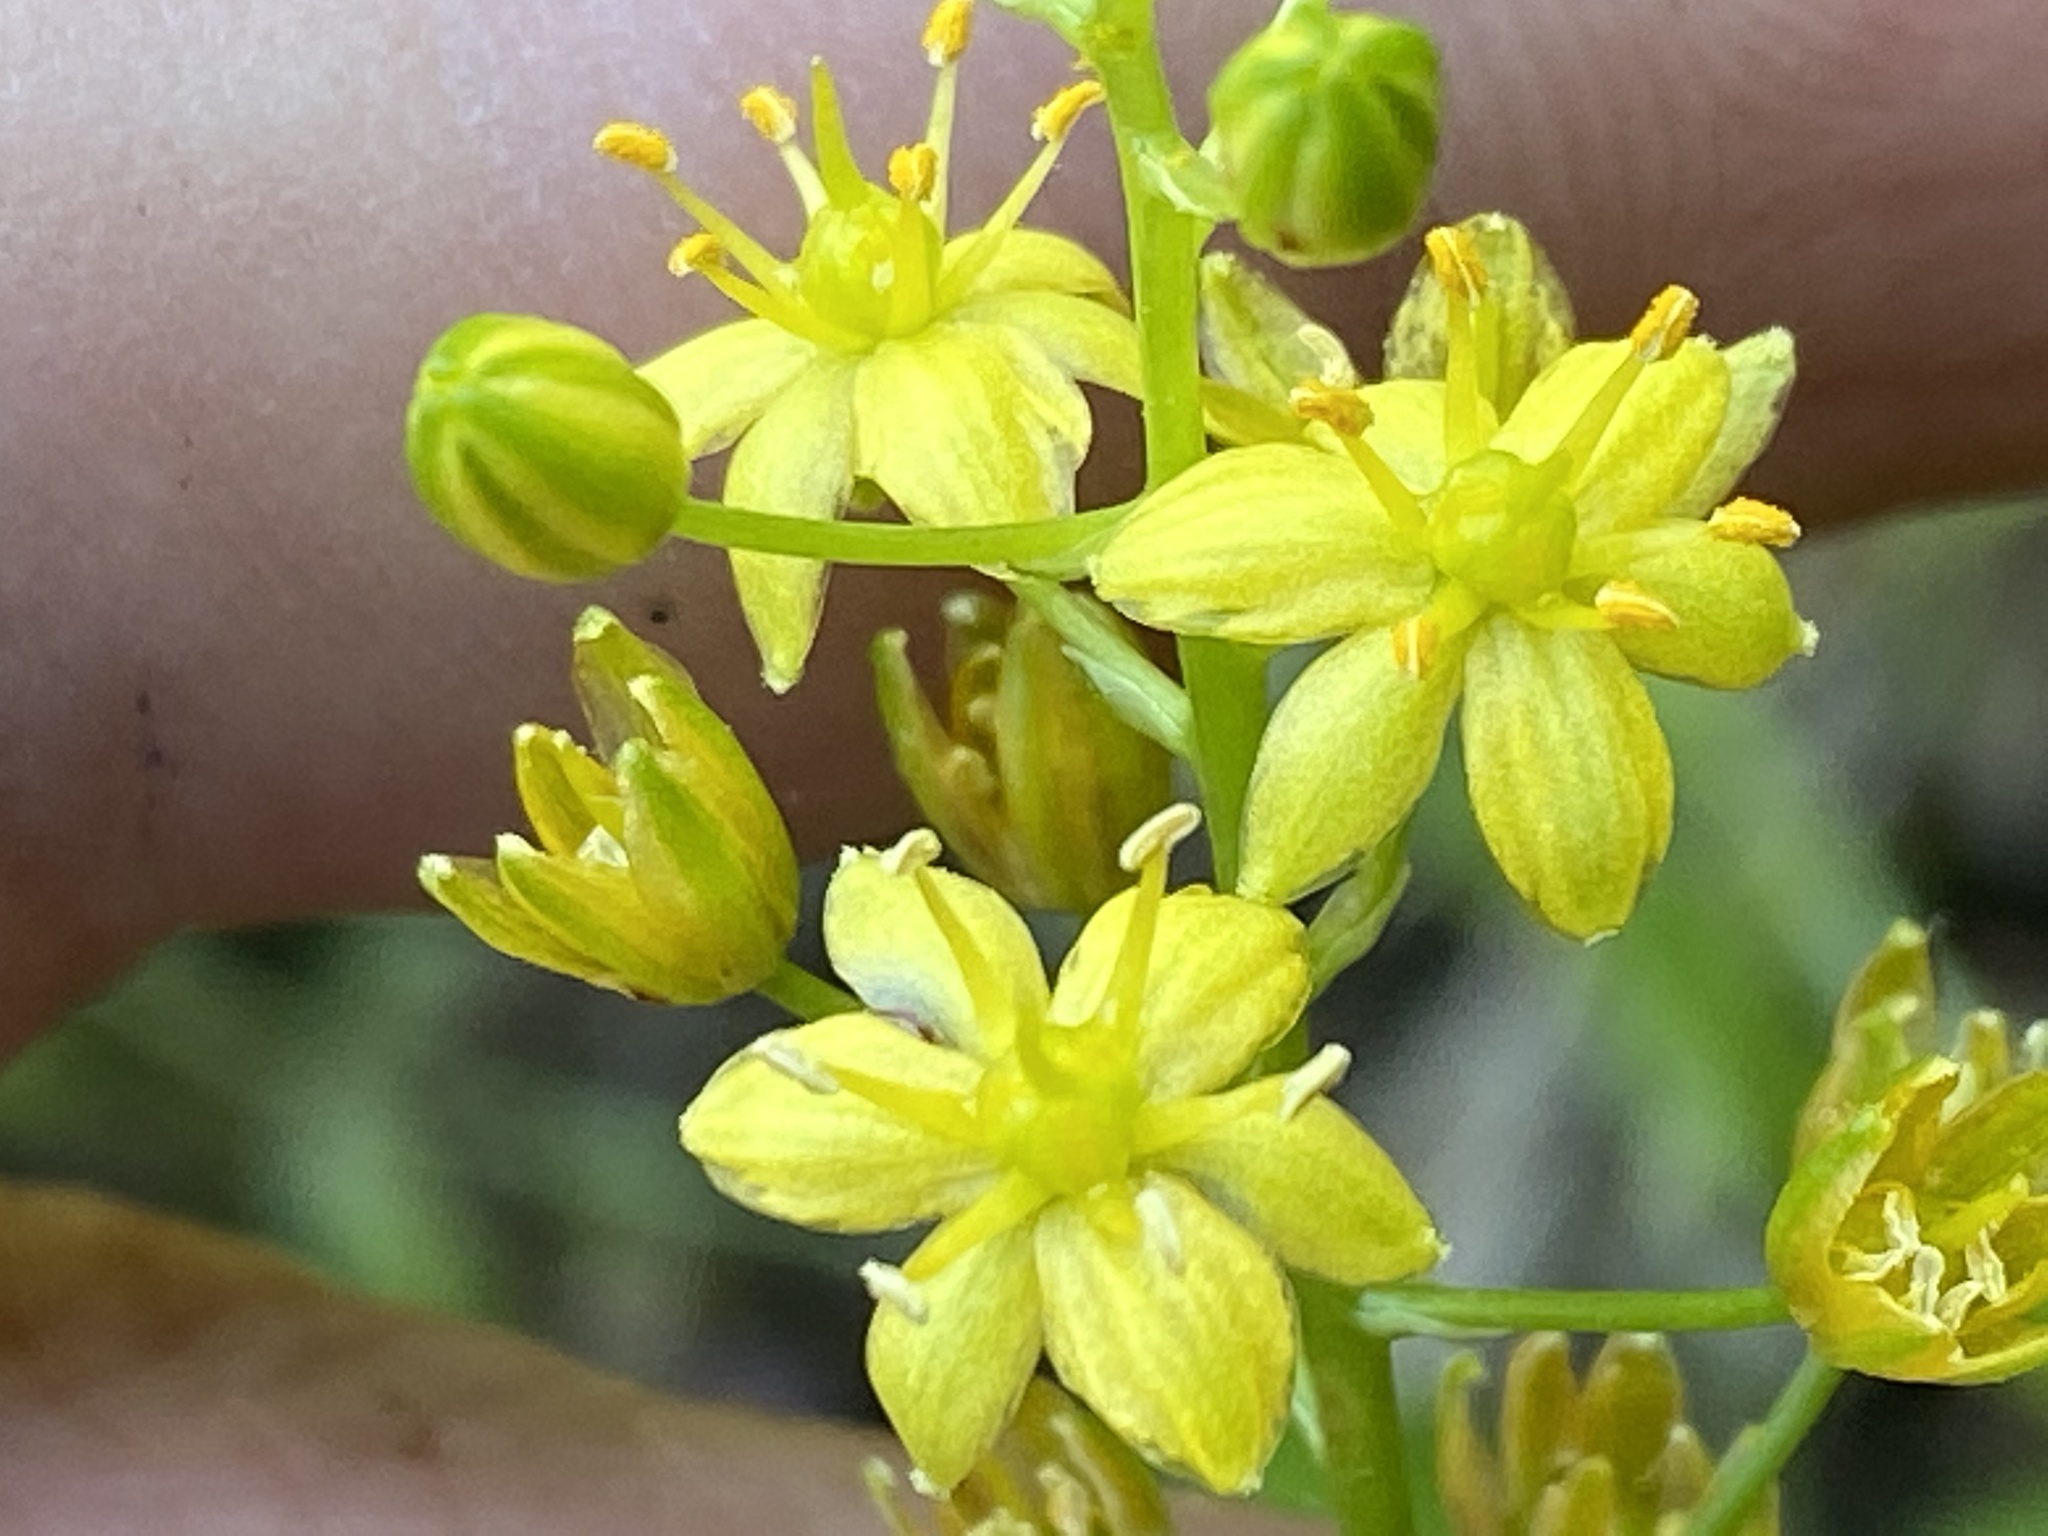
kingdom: Plantae
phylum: Tracheophyta
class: Liliopsida
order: Asparagales
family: Asparagaceae
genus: Schoenolirion
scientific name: Schoenolirion croceum
